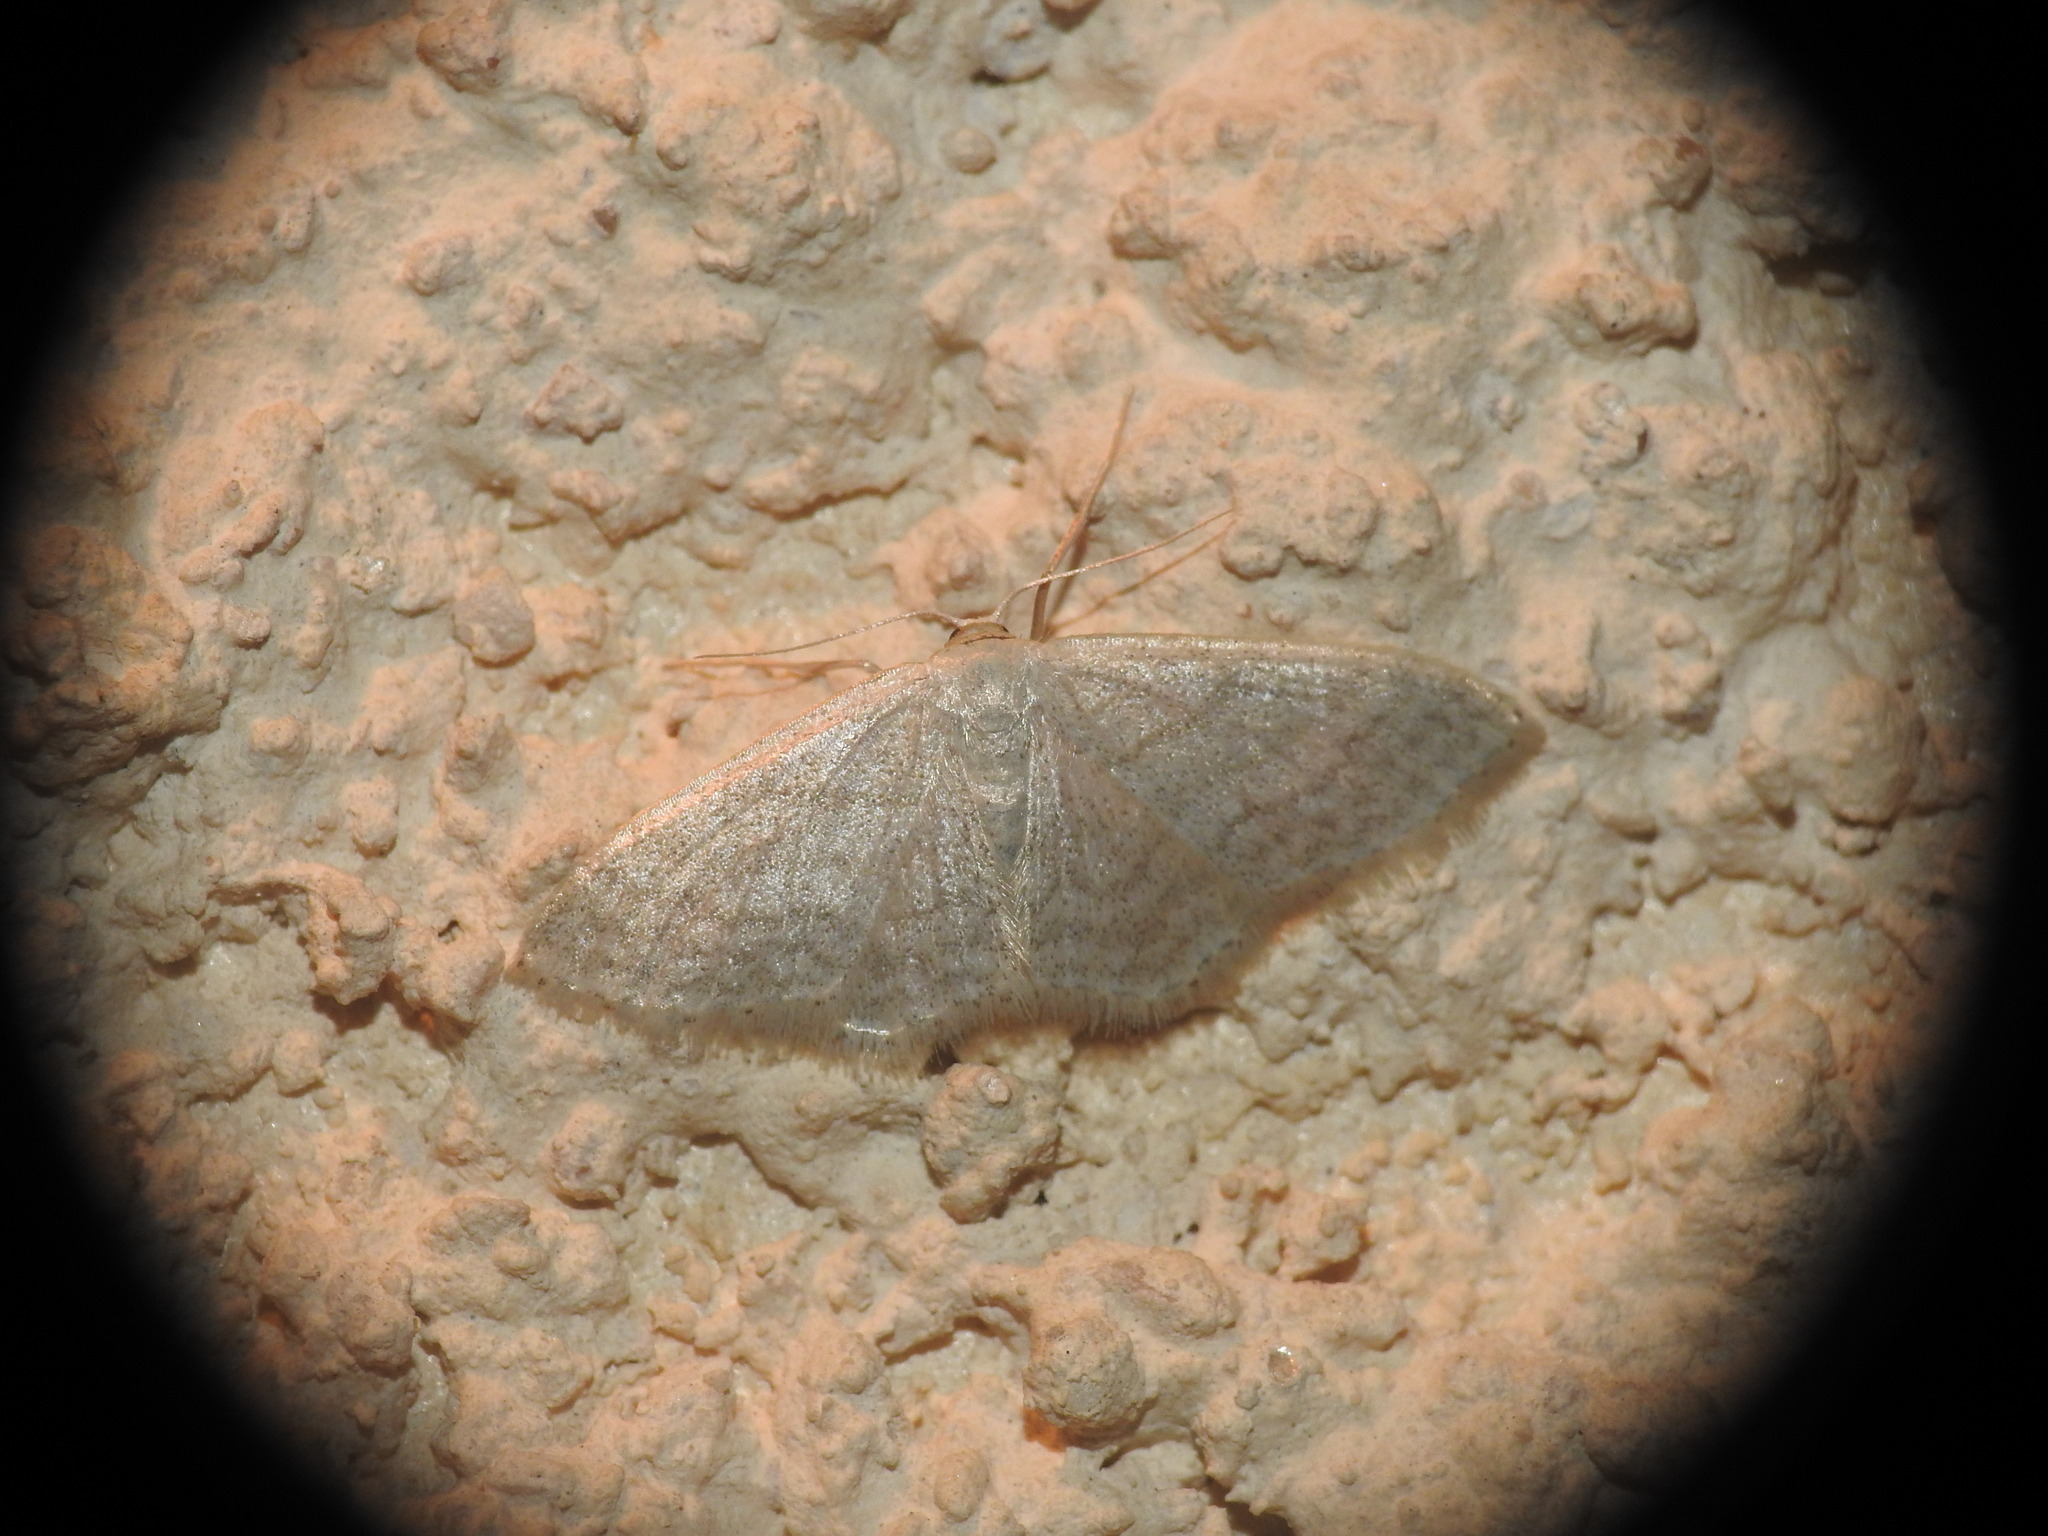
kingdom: Animalia
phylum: Arthropoda
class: Insecta
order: Lepidoptera
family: Geometridae
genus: Idaea
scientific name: Idaea subsericeata
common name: Satin wave
